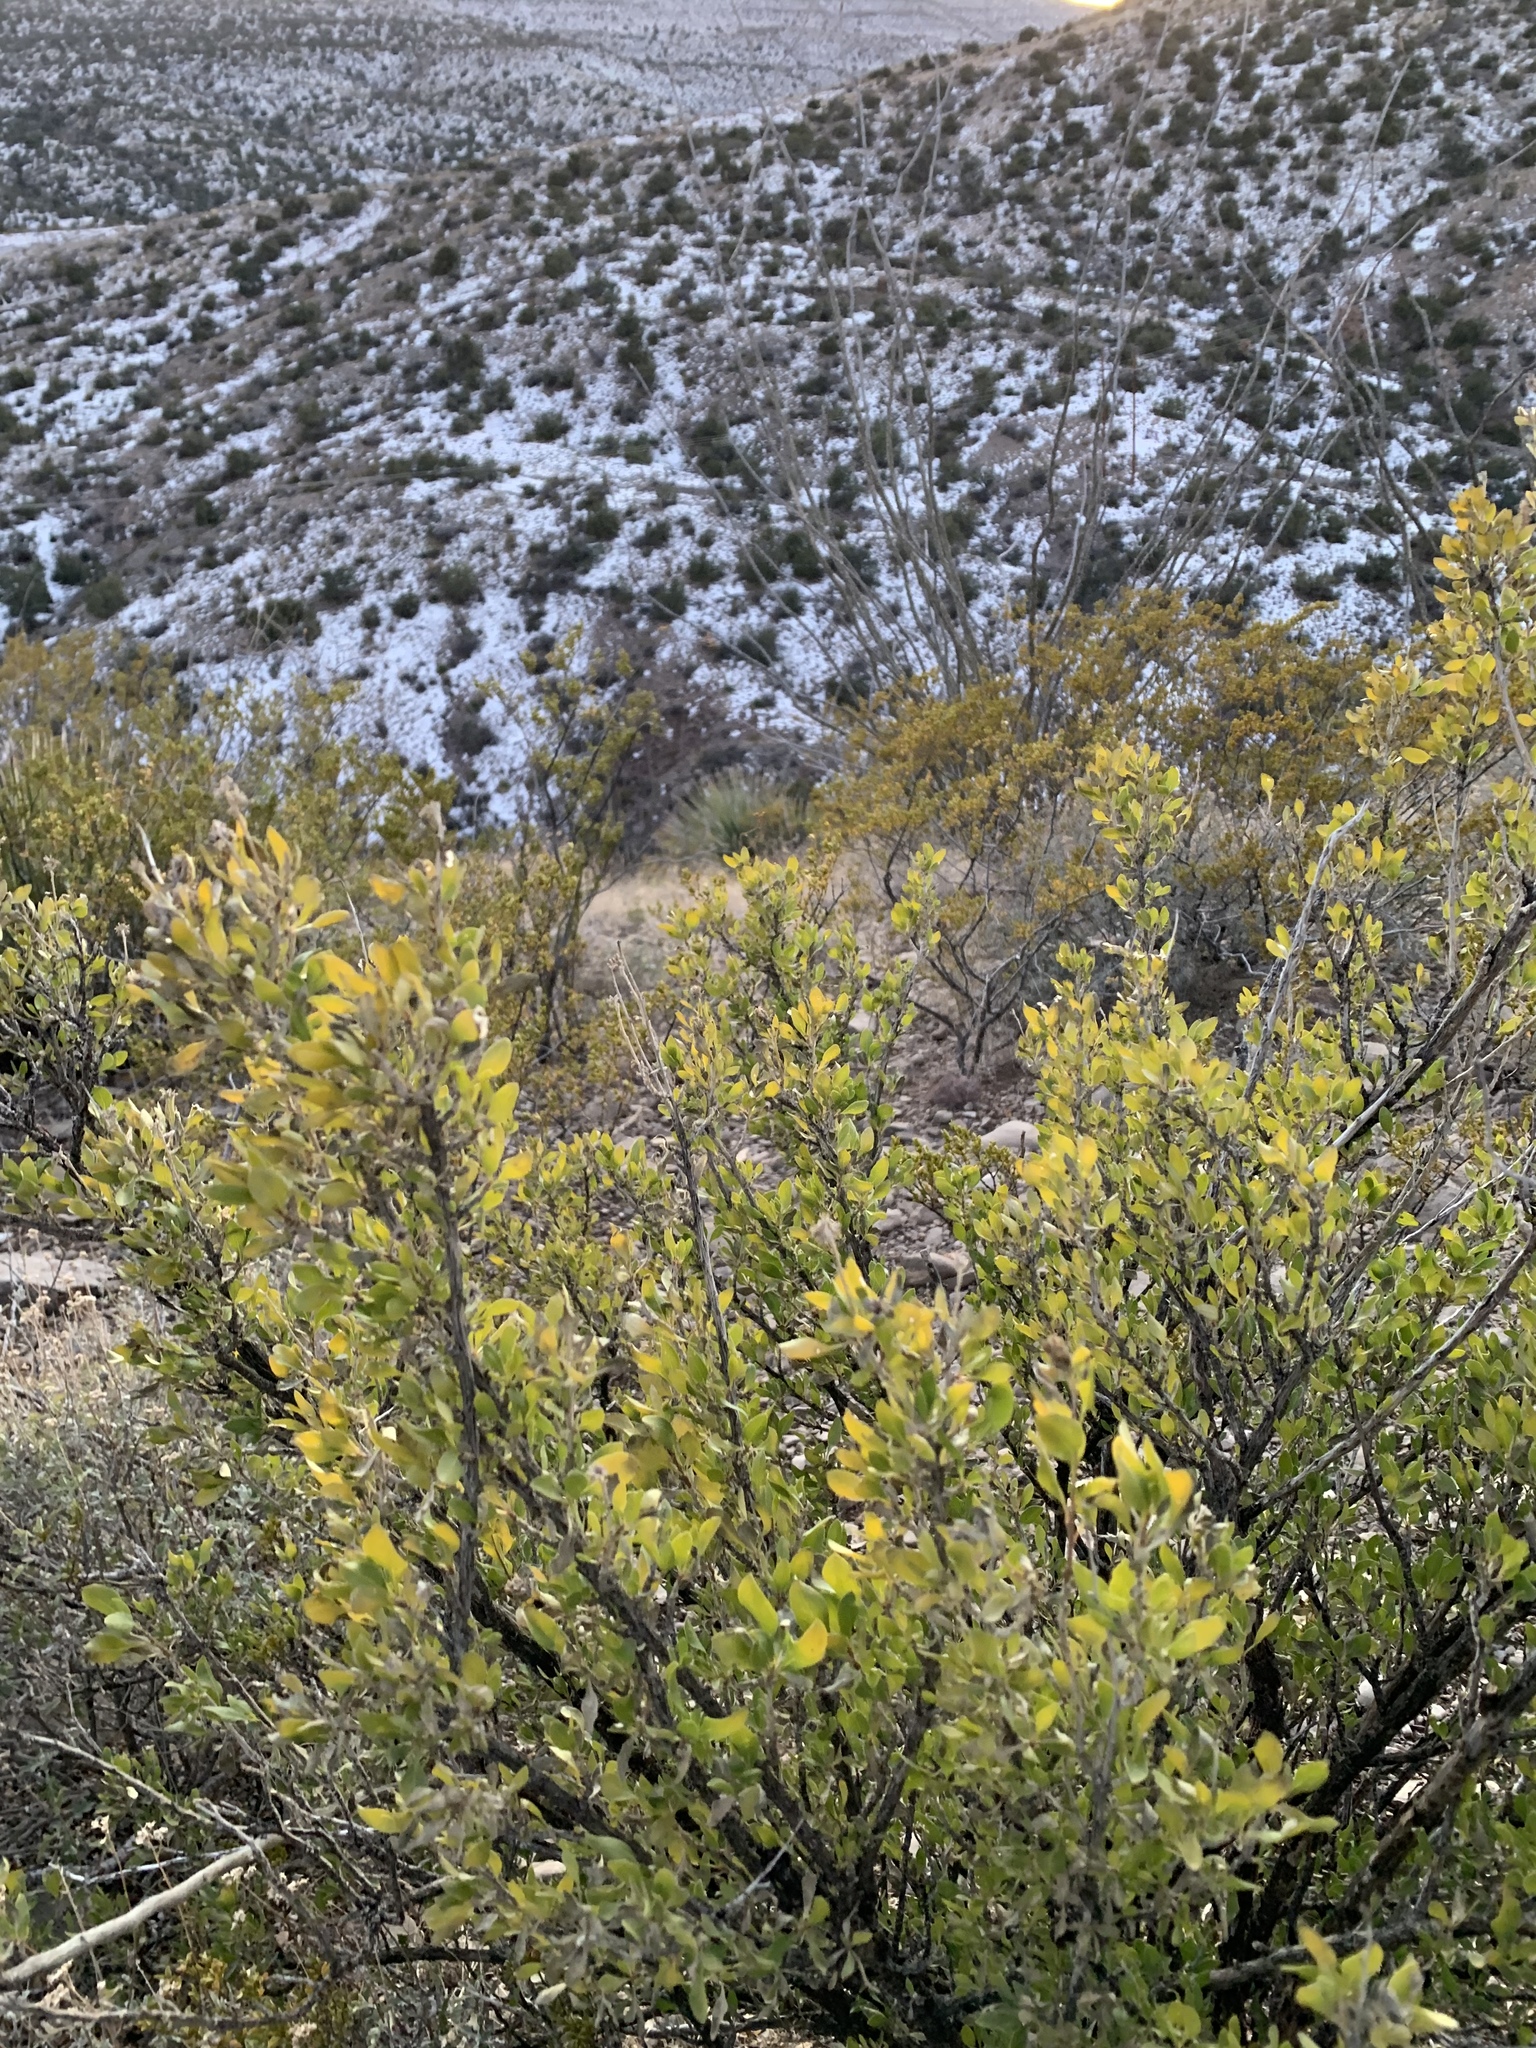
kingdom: Plantae
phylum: Tracheophyta
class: Magnoliopsida
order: Asterales
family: Asteraceae
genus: Flourensia
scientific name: Flourensia cernua
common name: Varnishbush
